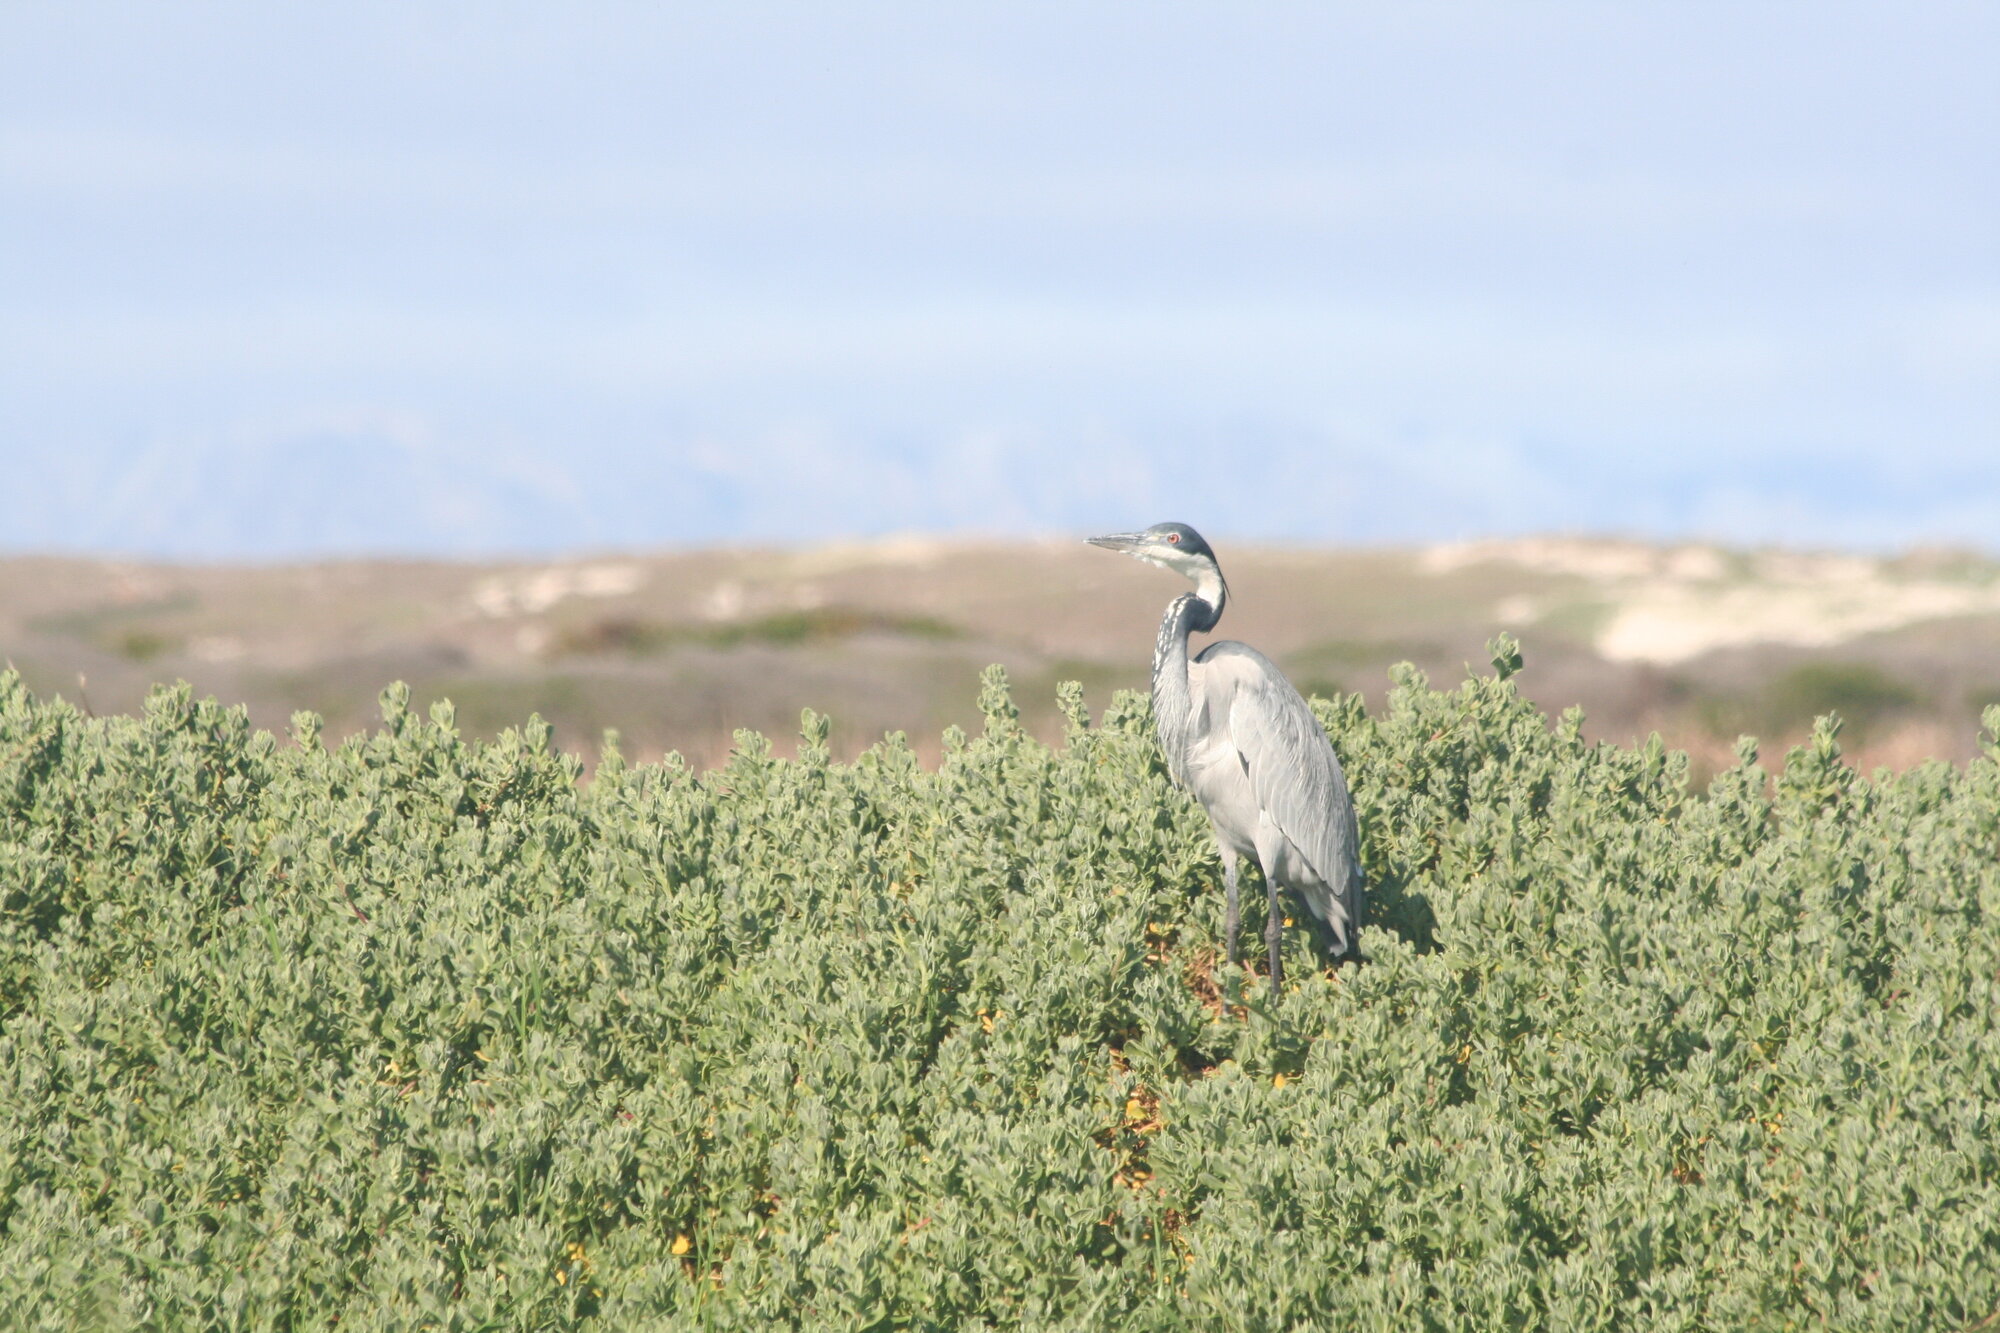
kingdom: Animalia
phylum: Chordata
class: Aves
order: Pelecaniformes
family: Ardeidae
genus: Ardea
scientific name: Ardea melanocephala
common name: Black-headed heron
